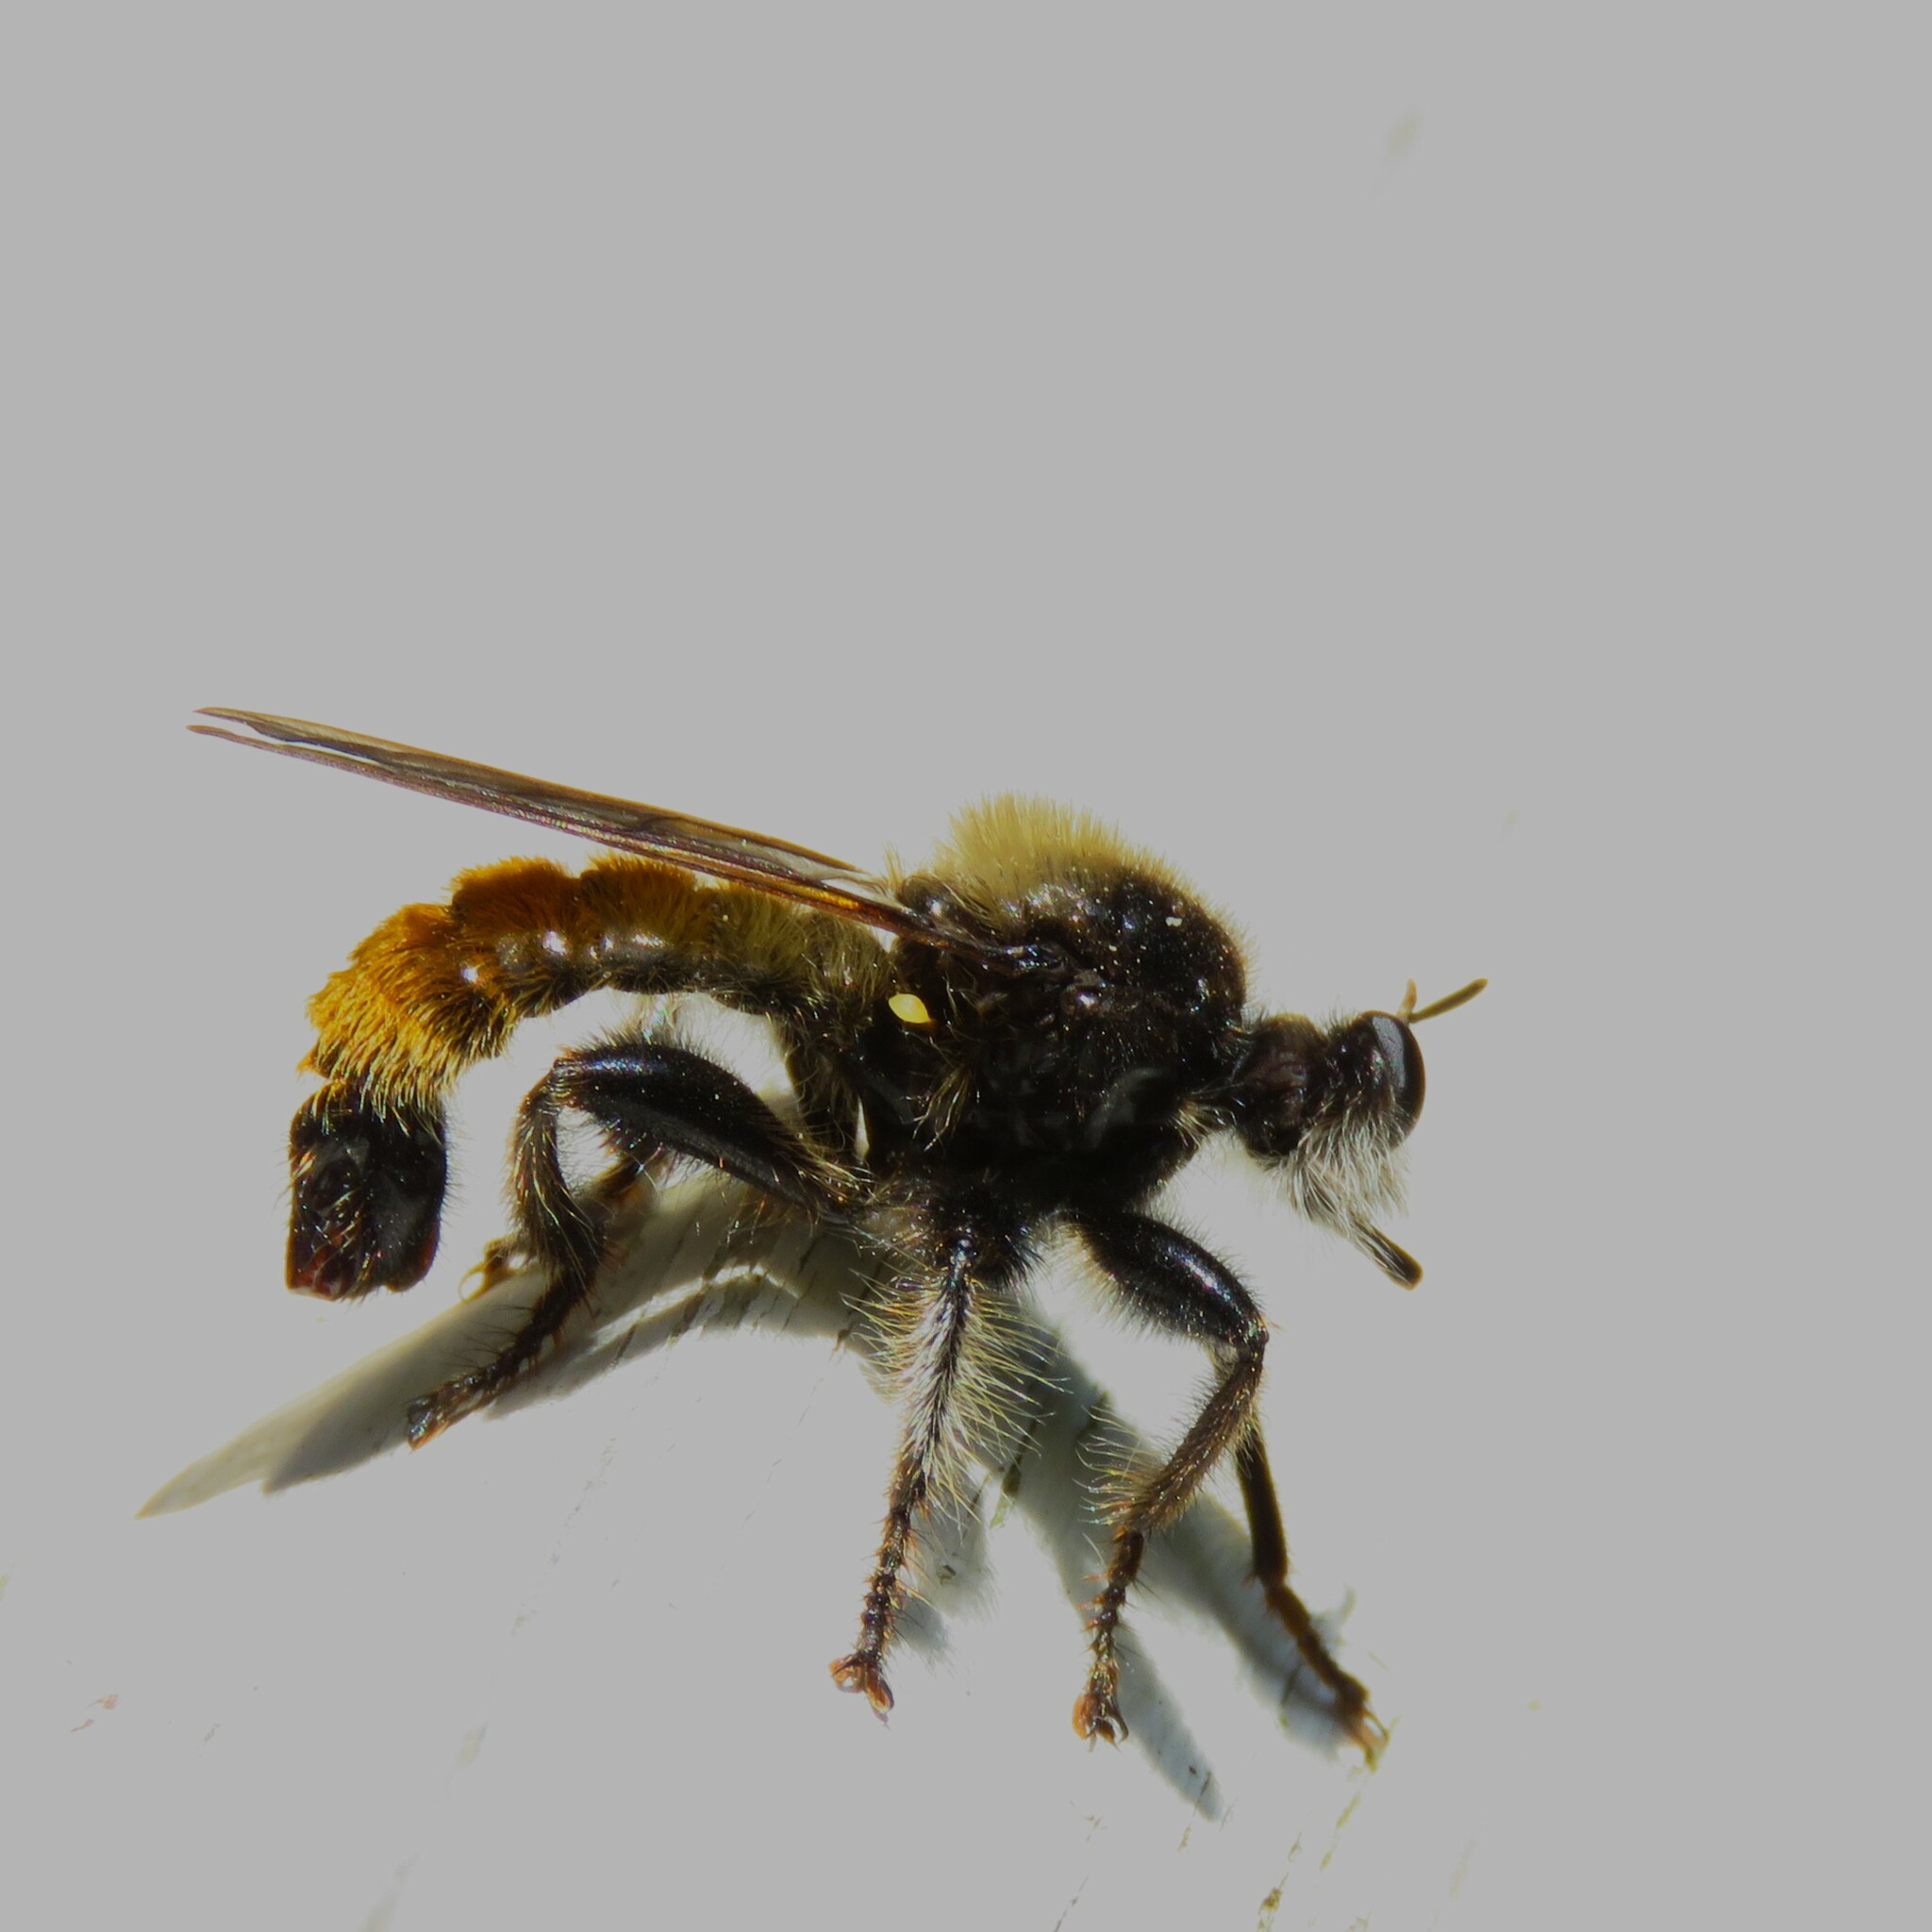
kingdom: Animalia
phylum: Arthropoda
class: Insecta
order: Diptera
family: Asilidae
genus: Laphria
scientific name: Laphria flava
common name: Bumblebee robberfly
